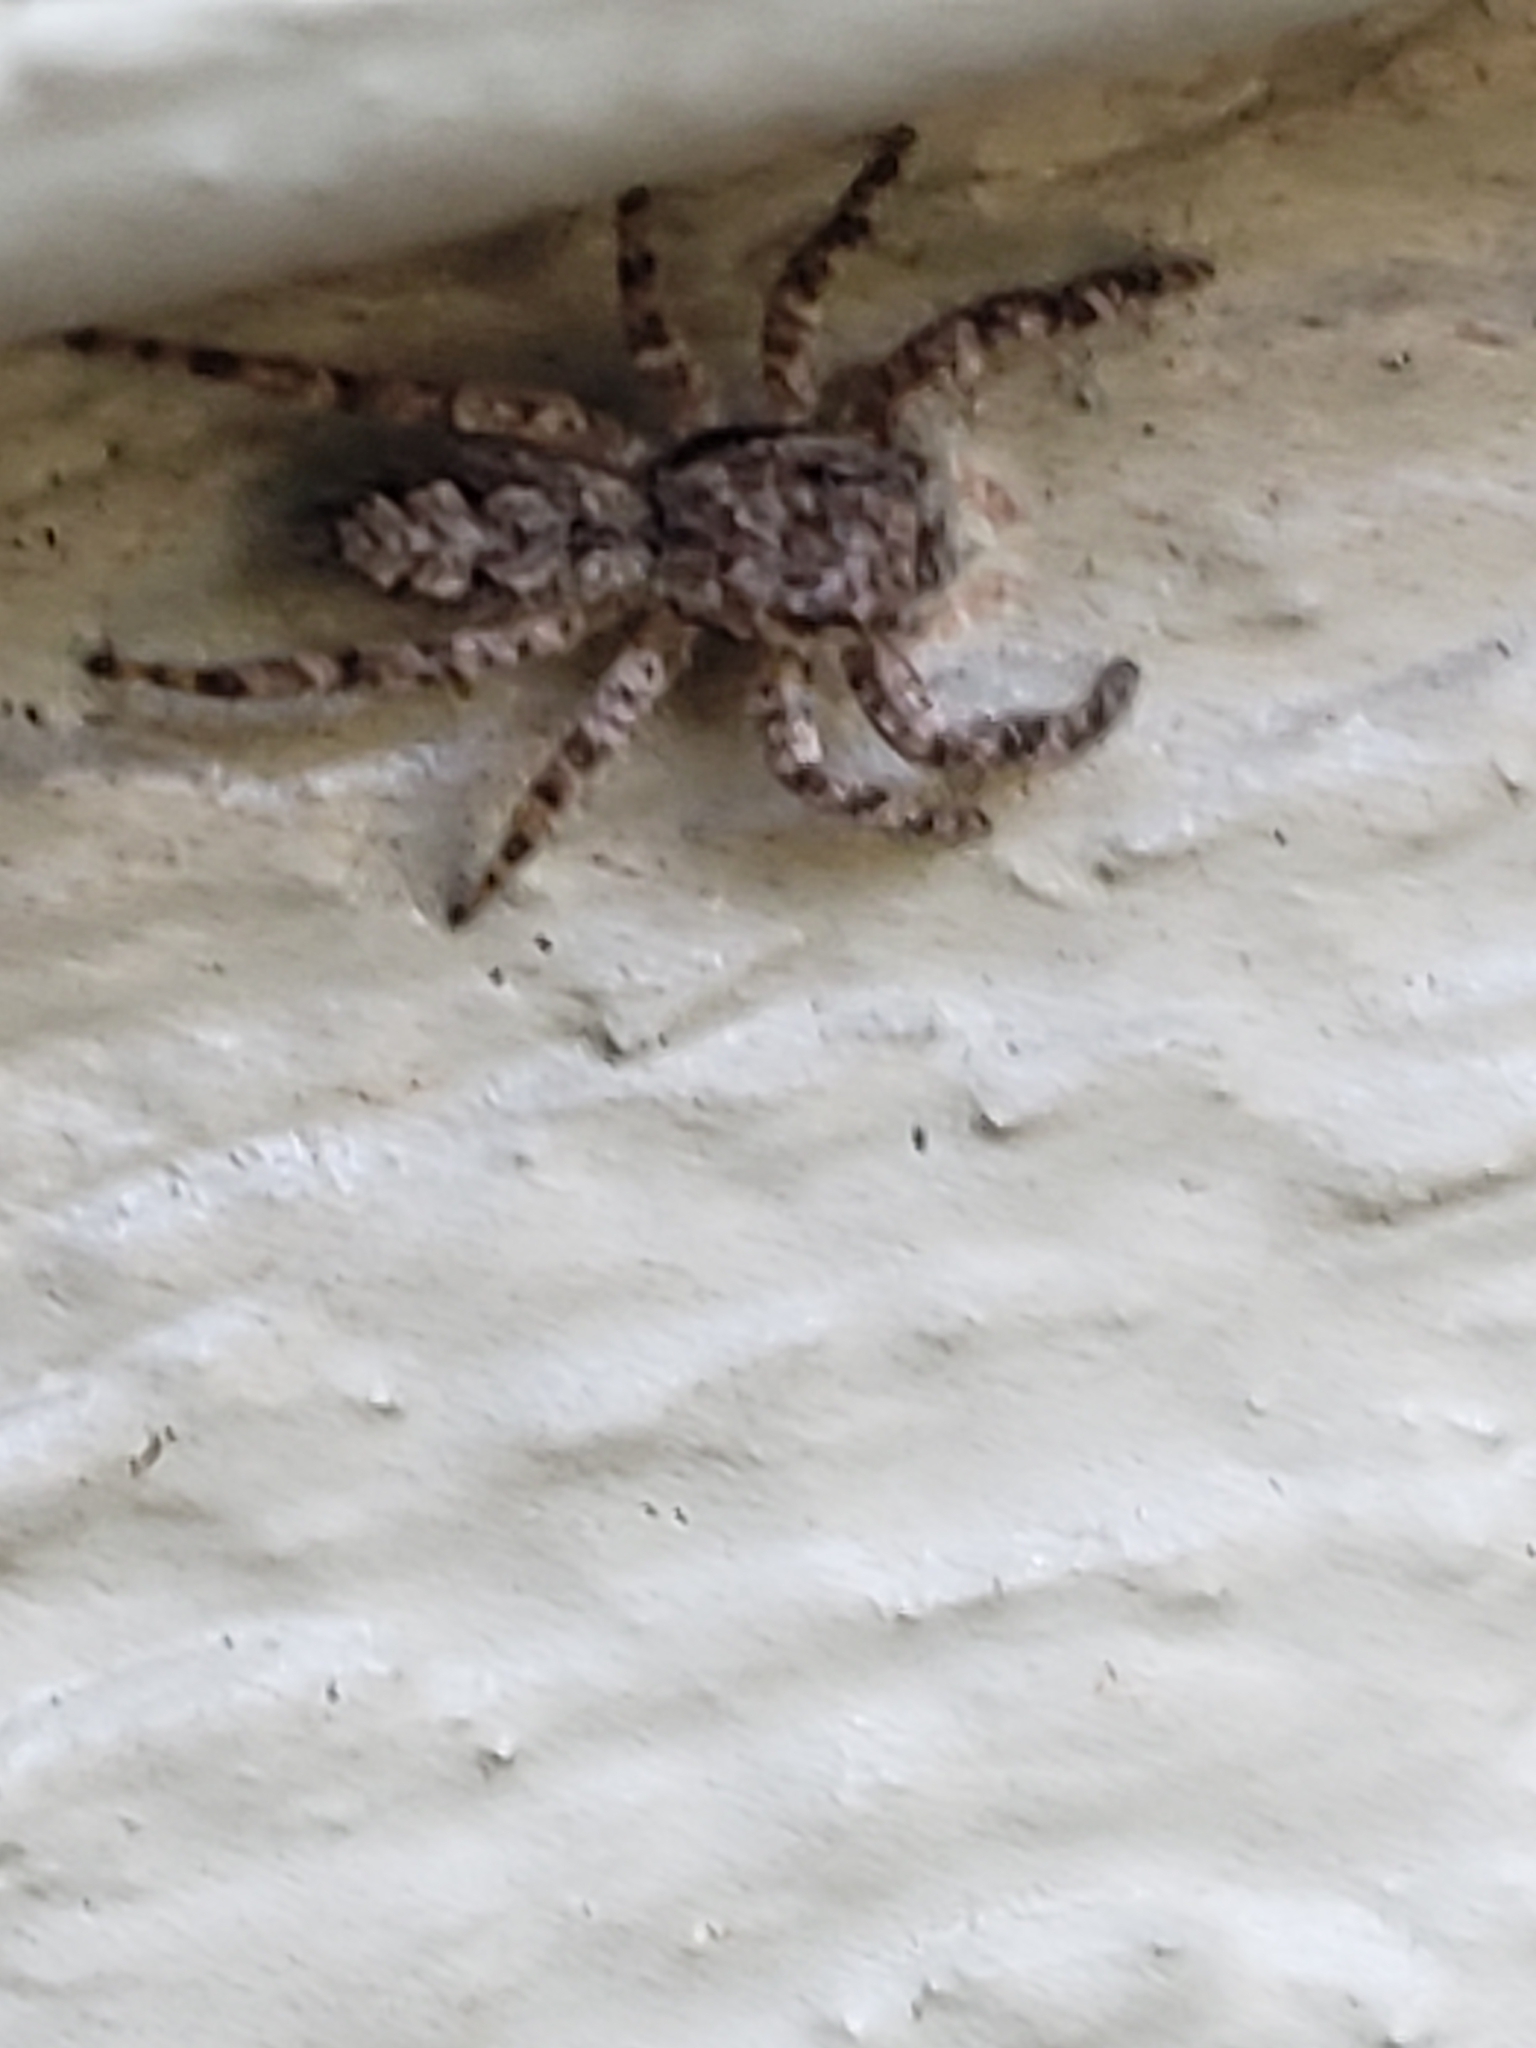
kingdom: Animalia
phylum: Arthropoda
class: Arachnida
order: Araneae
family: Salticidae
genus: Platycryptus
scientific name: Platycryptus undatus
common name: Tan jumping spider
